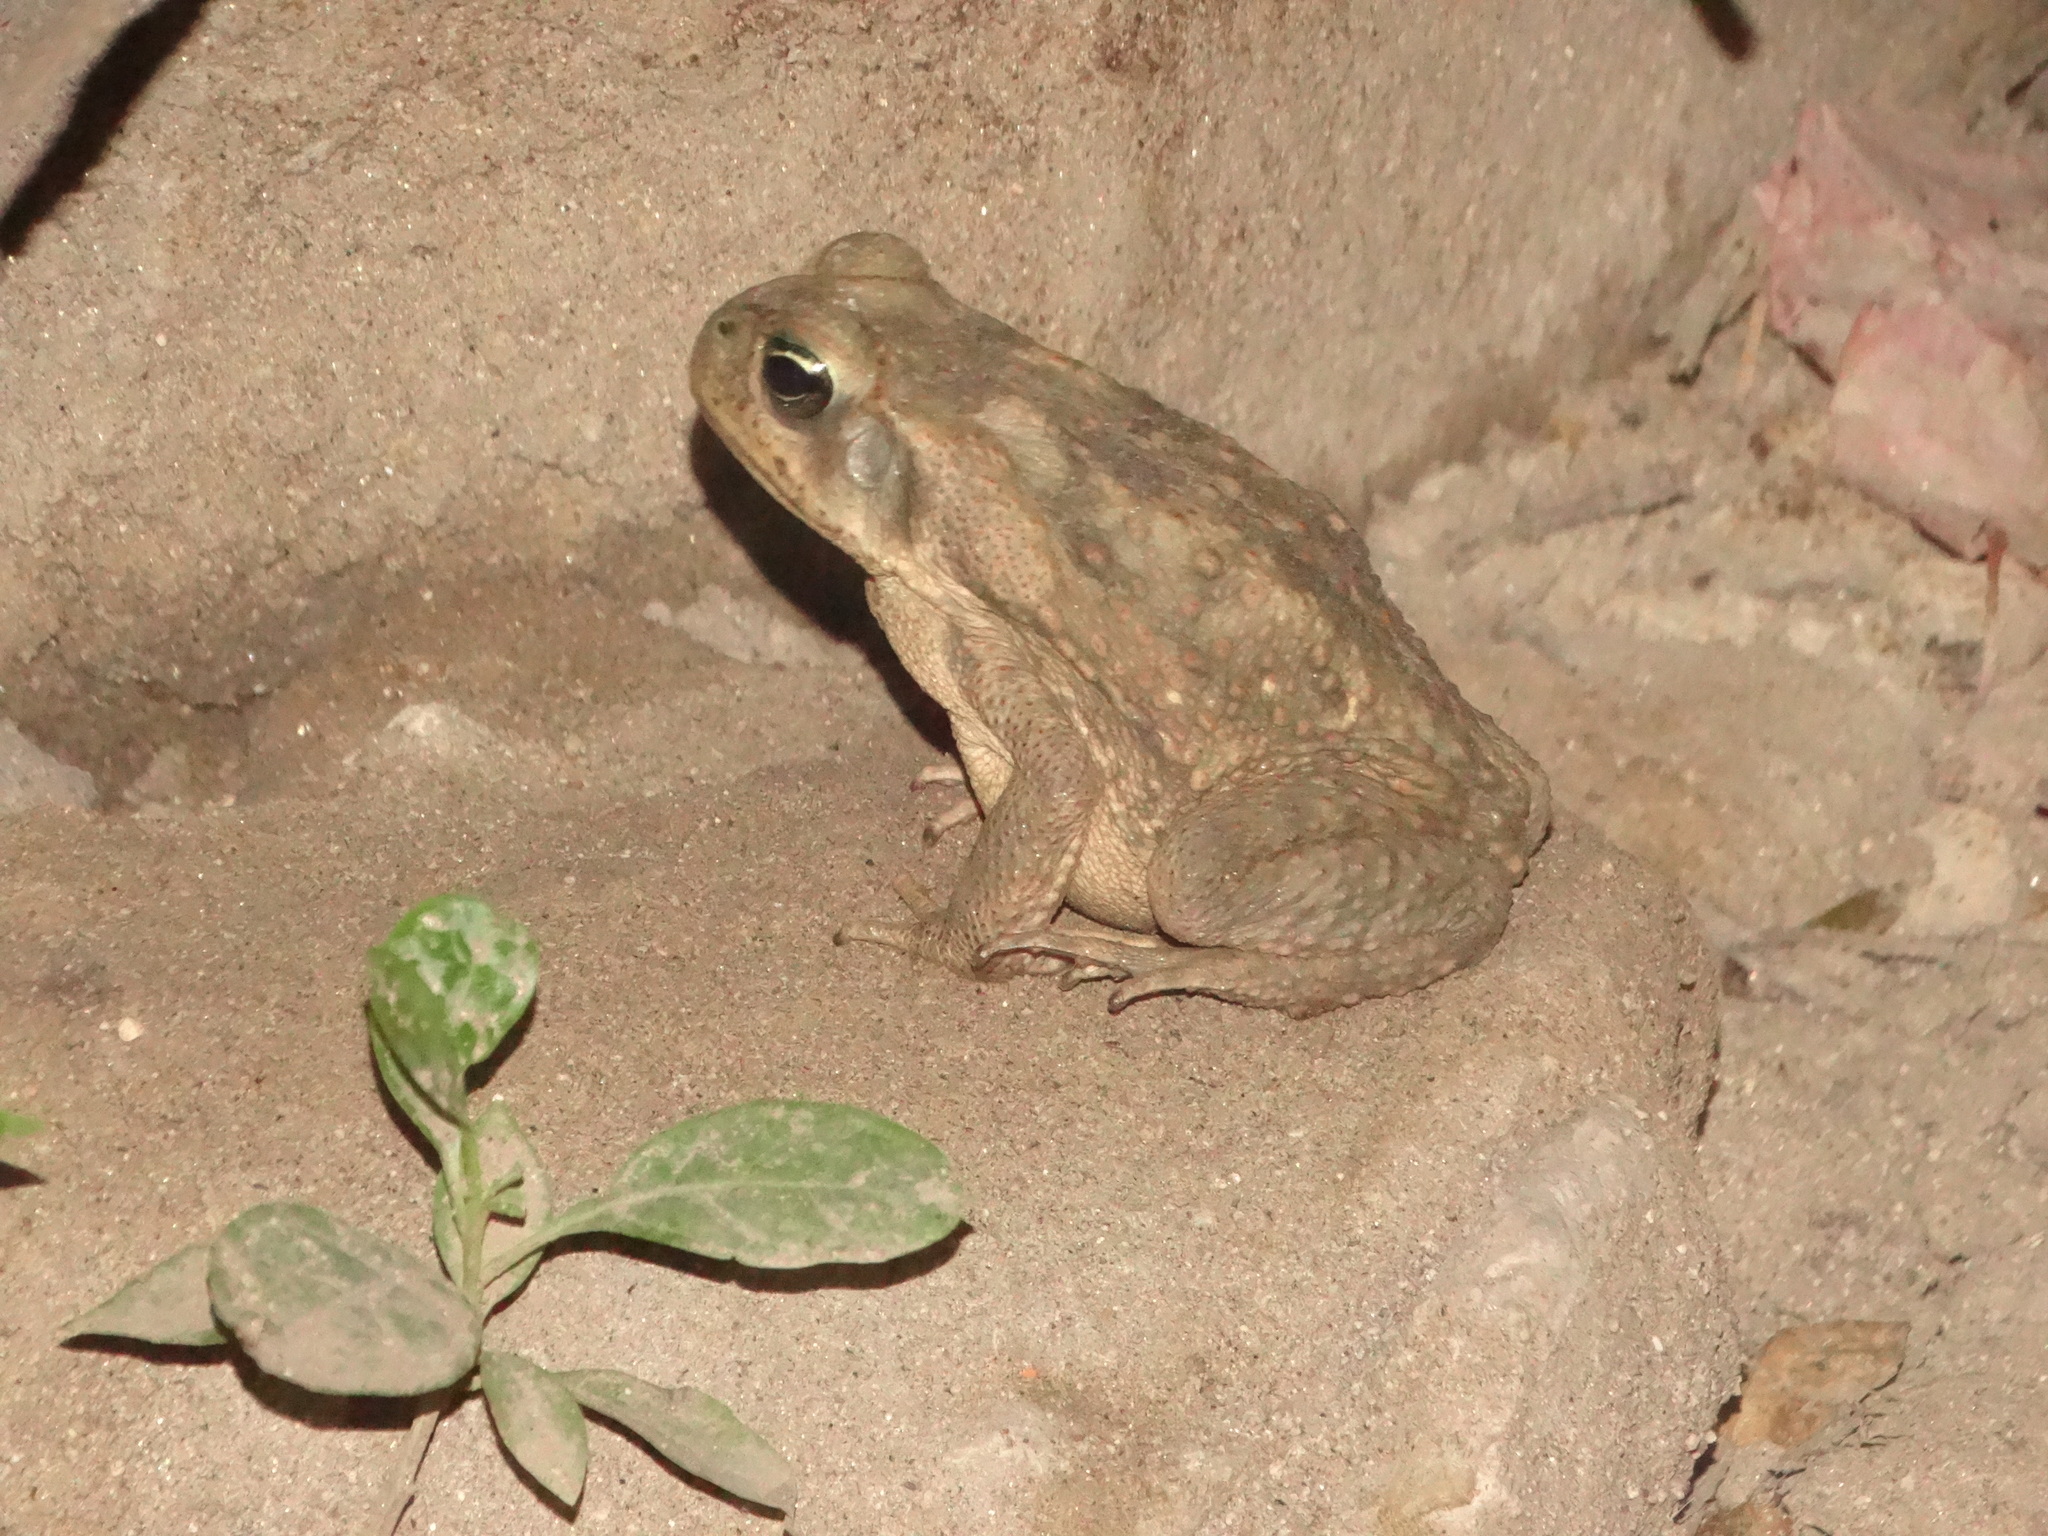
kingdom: Animalia
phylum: Chordata
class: Amphibia
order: Anura
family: Bufonidae
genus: Rhinella
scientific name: Rhinella horribilis
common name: Mesoamerican cane toad
